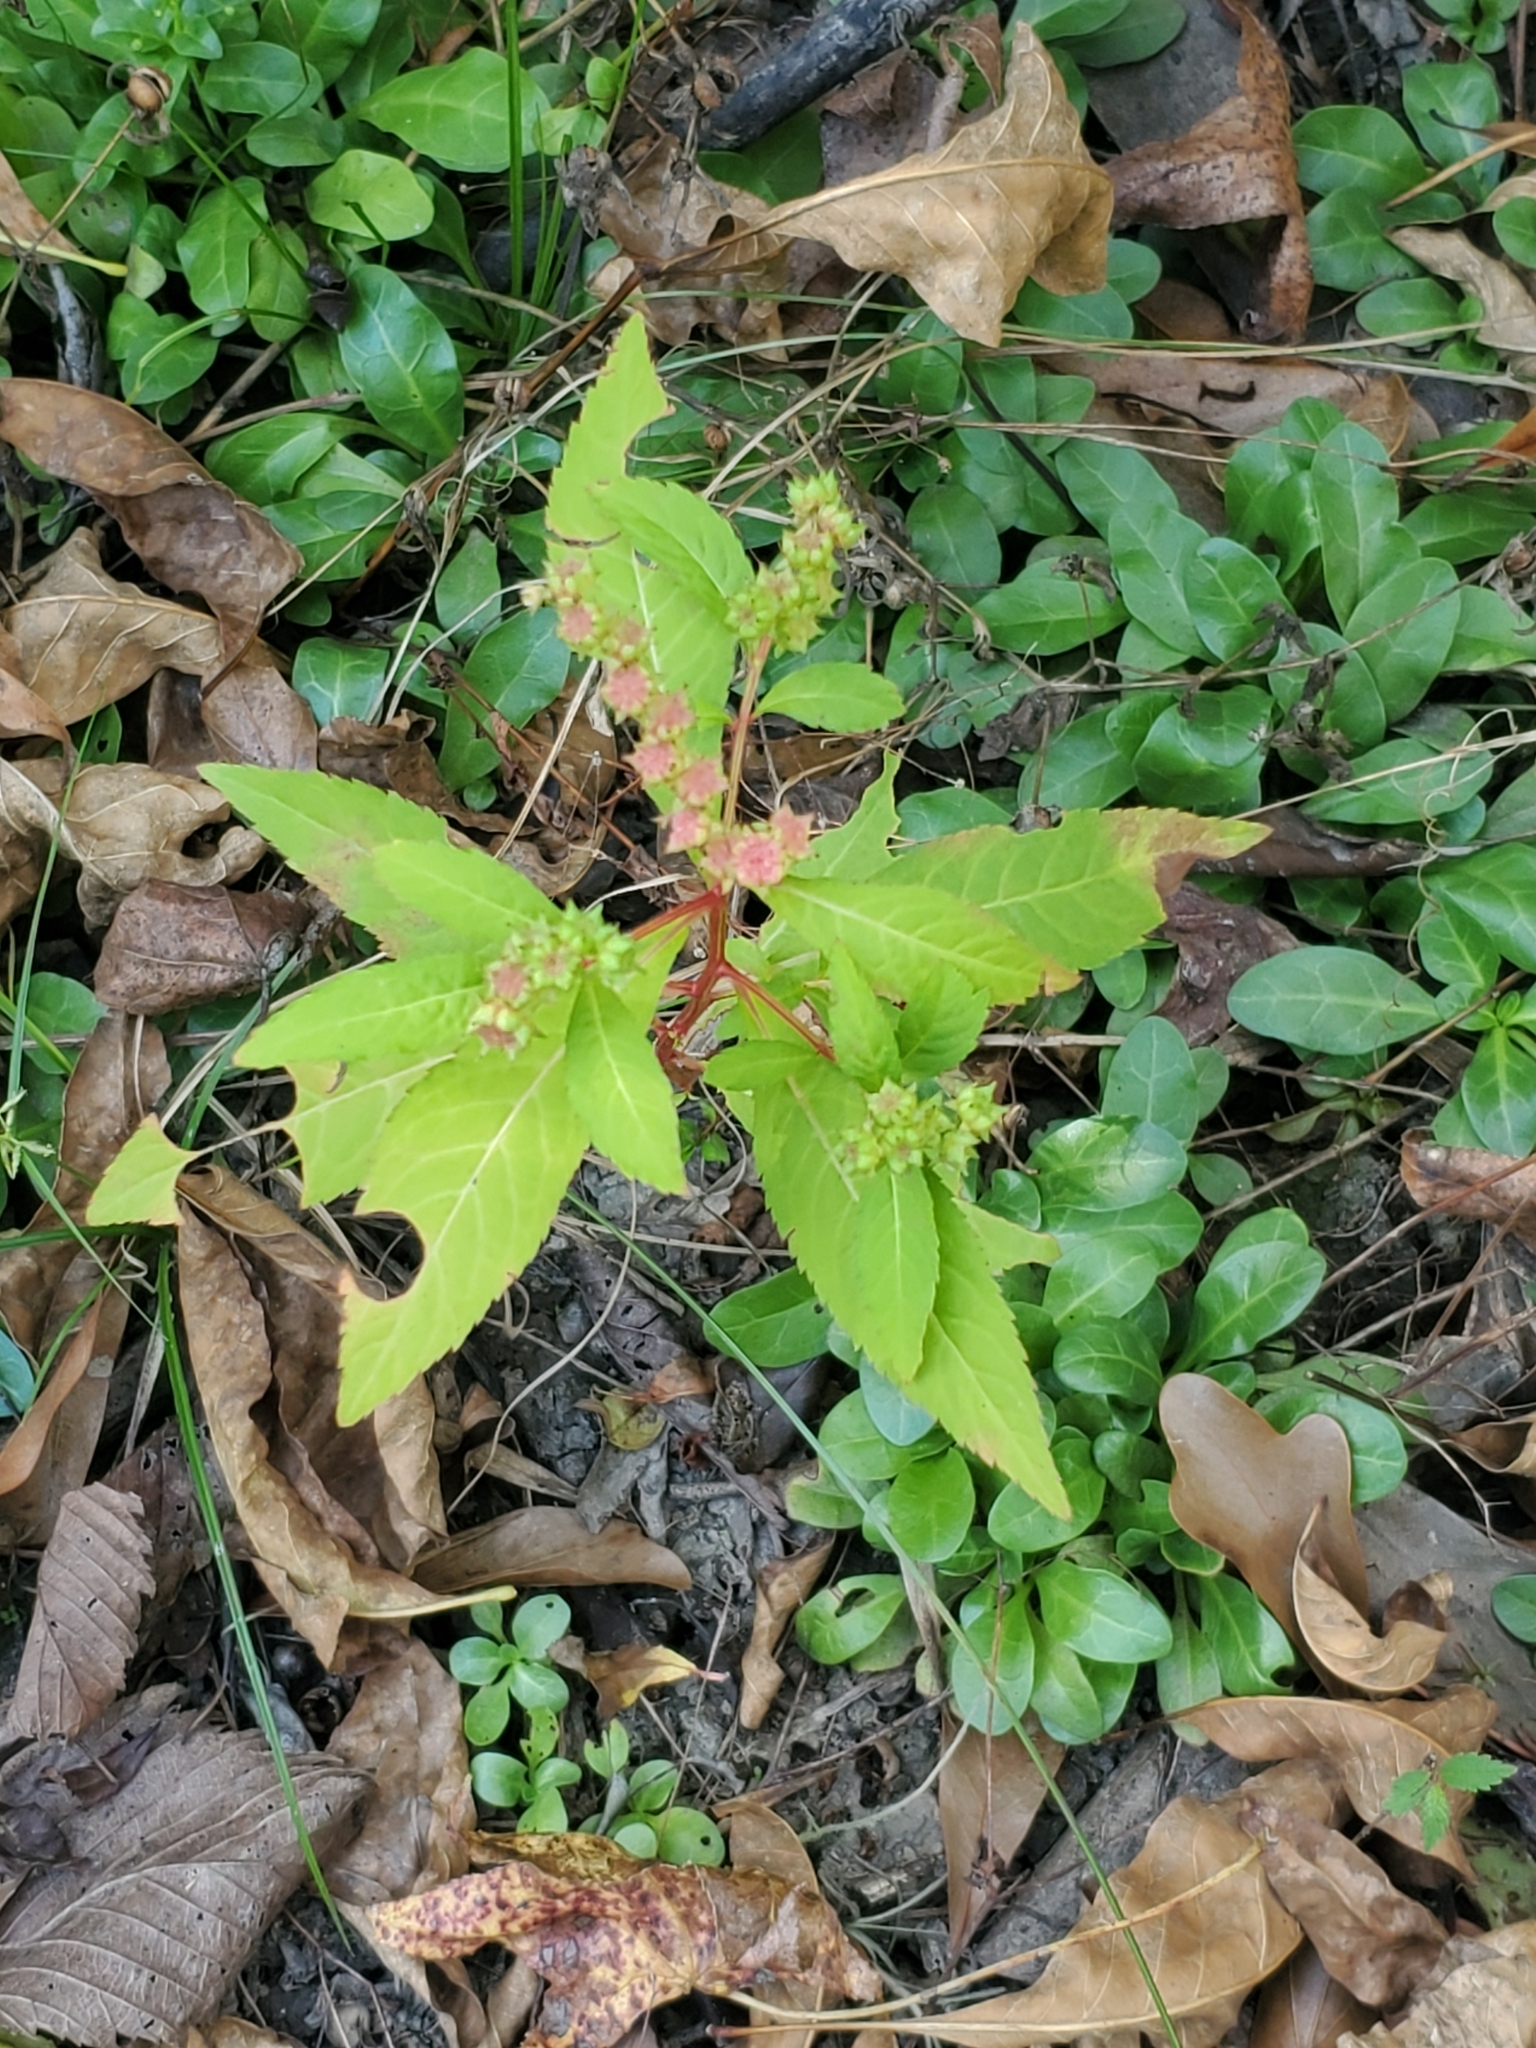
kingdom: Plantae
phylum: Tracheophyta
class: Magnoliopsida
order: Saxifragales
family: Penthoraceae
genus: Penthorum
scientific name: Penthorum sedoides
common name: Ditch stonecrop
